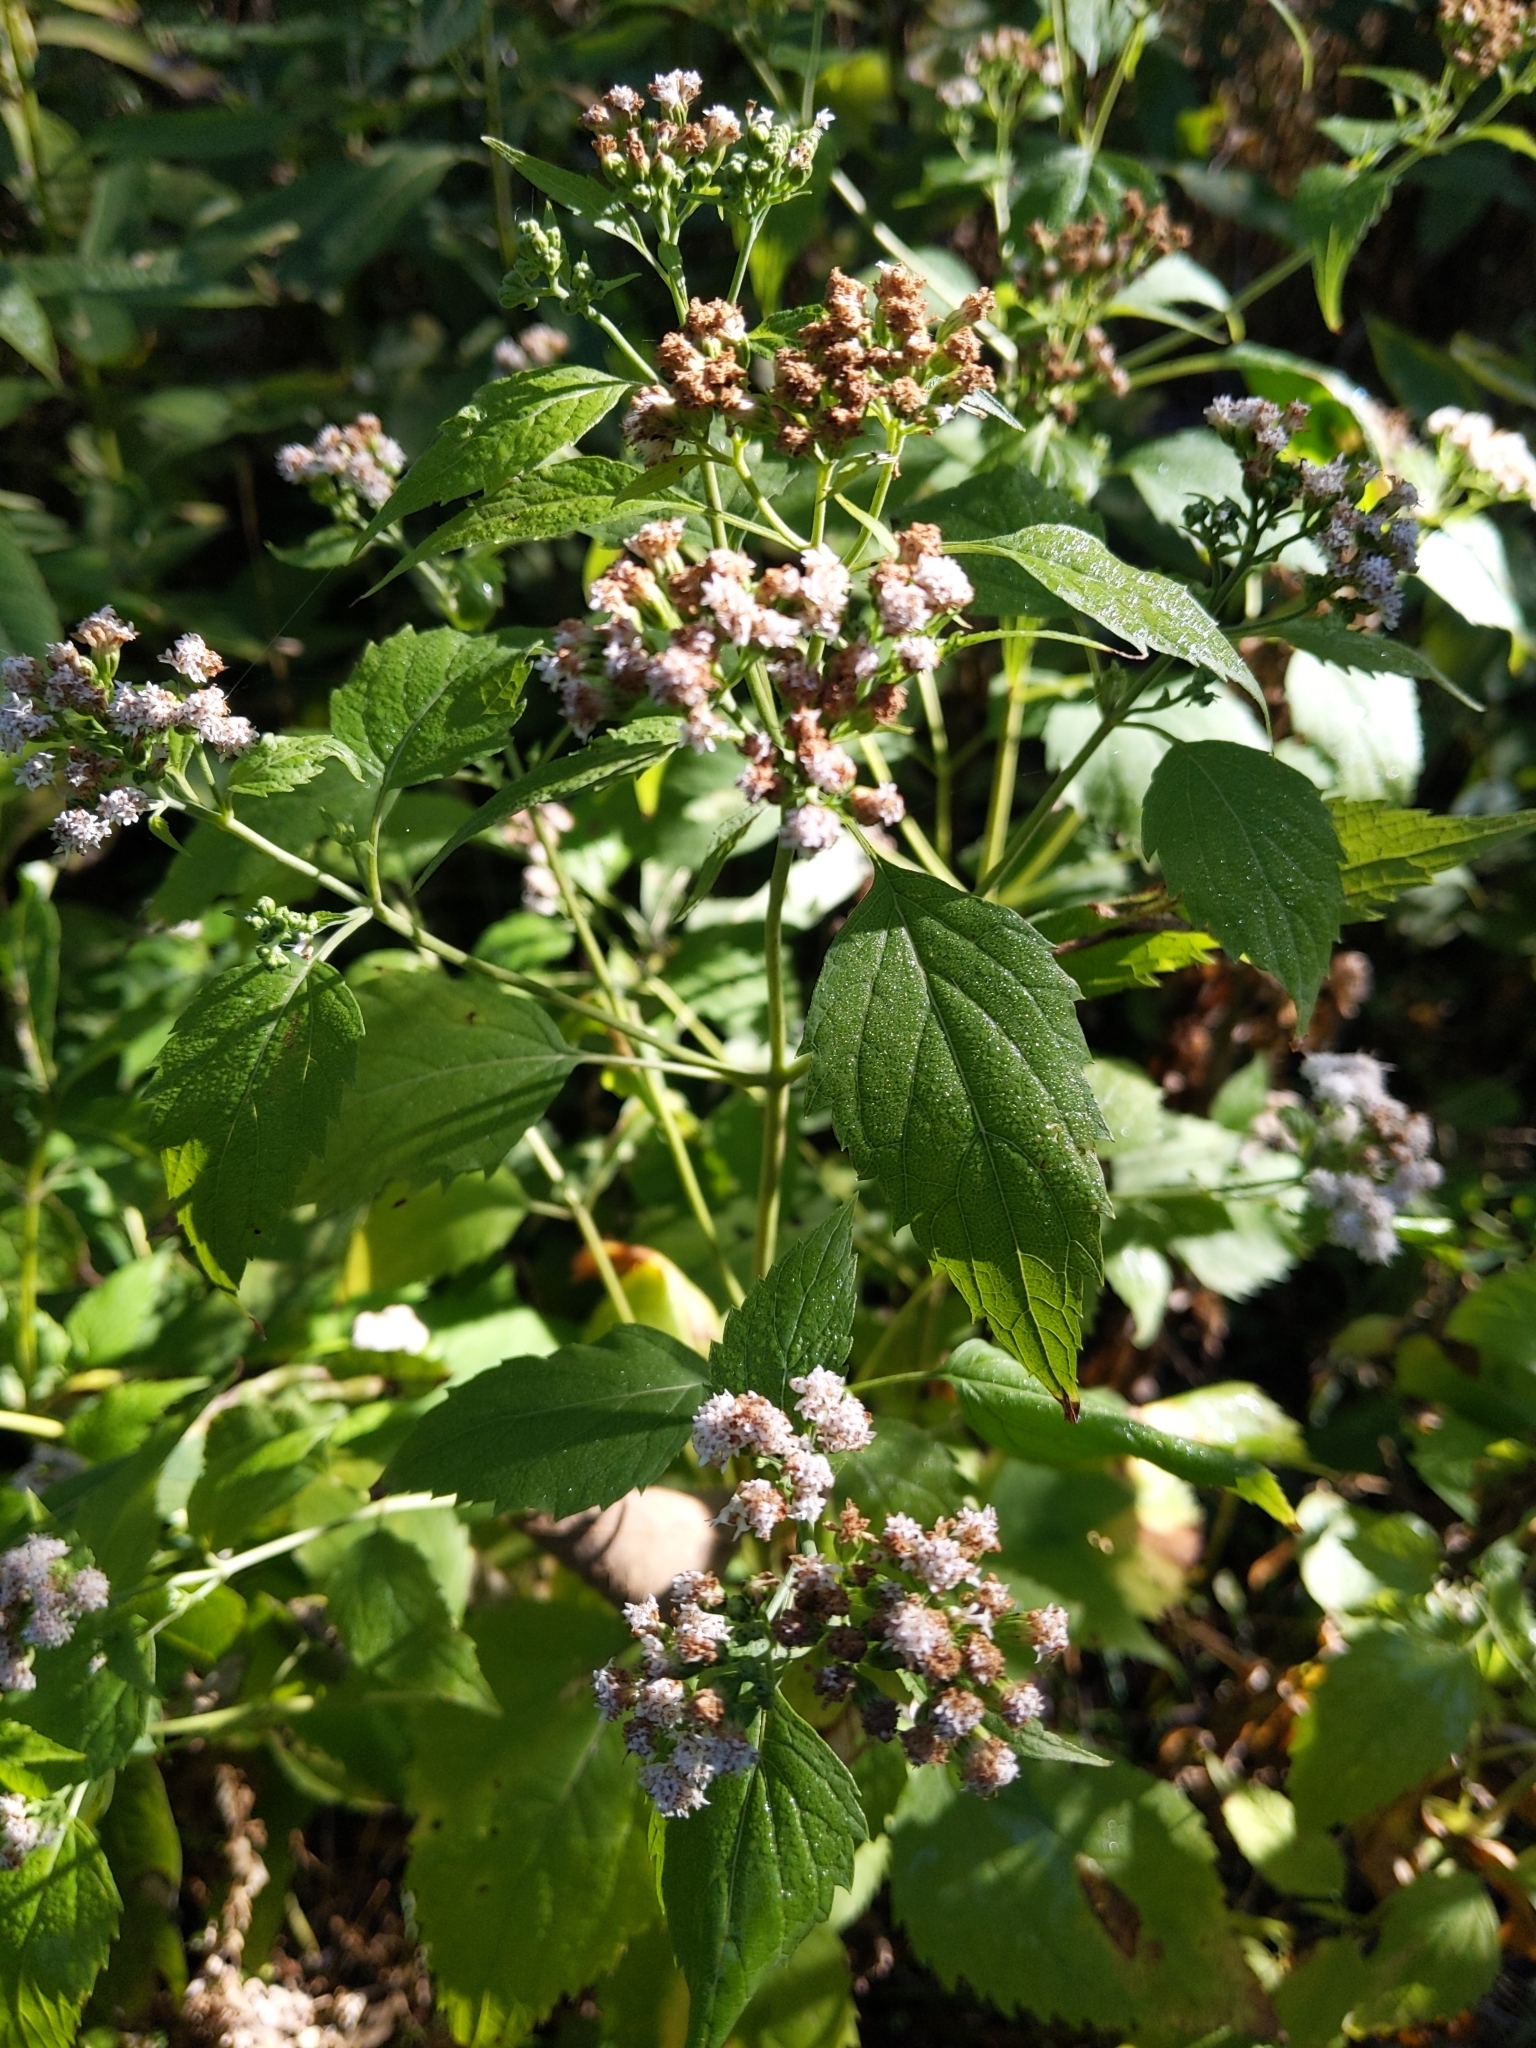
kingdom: Plantae
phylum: Tracheophyta
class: Magnoliopsida
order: Asterales
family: Asteraceae
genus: Ageratina
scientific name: Ageratina altissima
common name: White snakeroot
